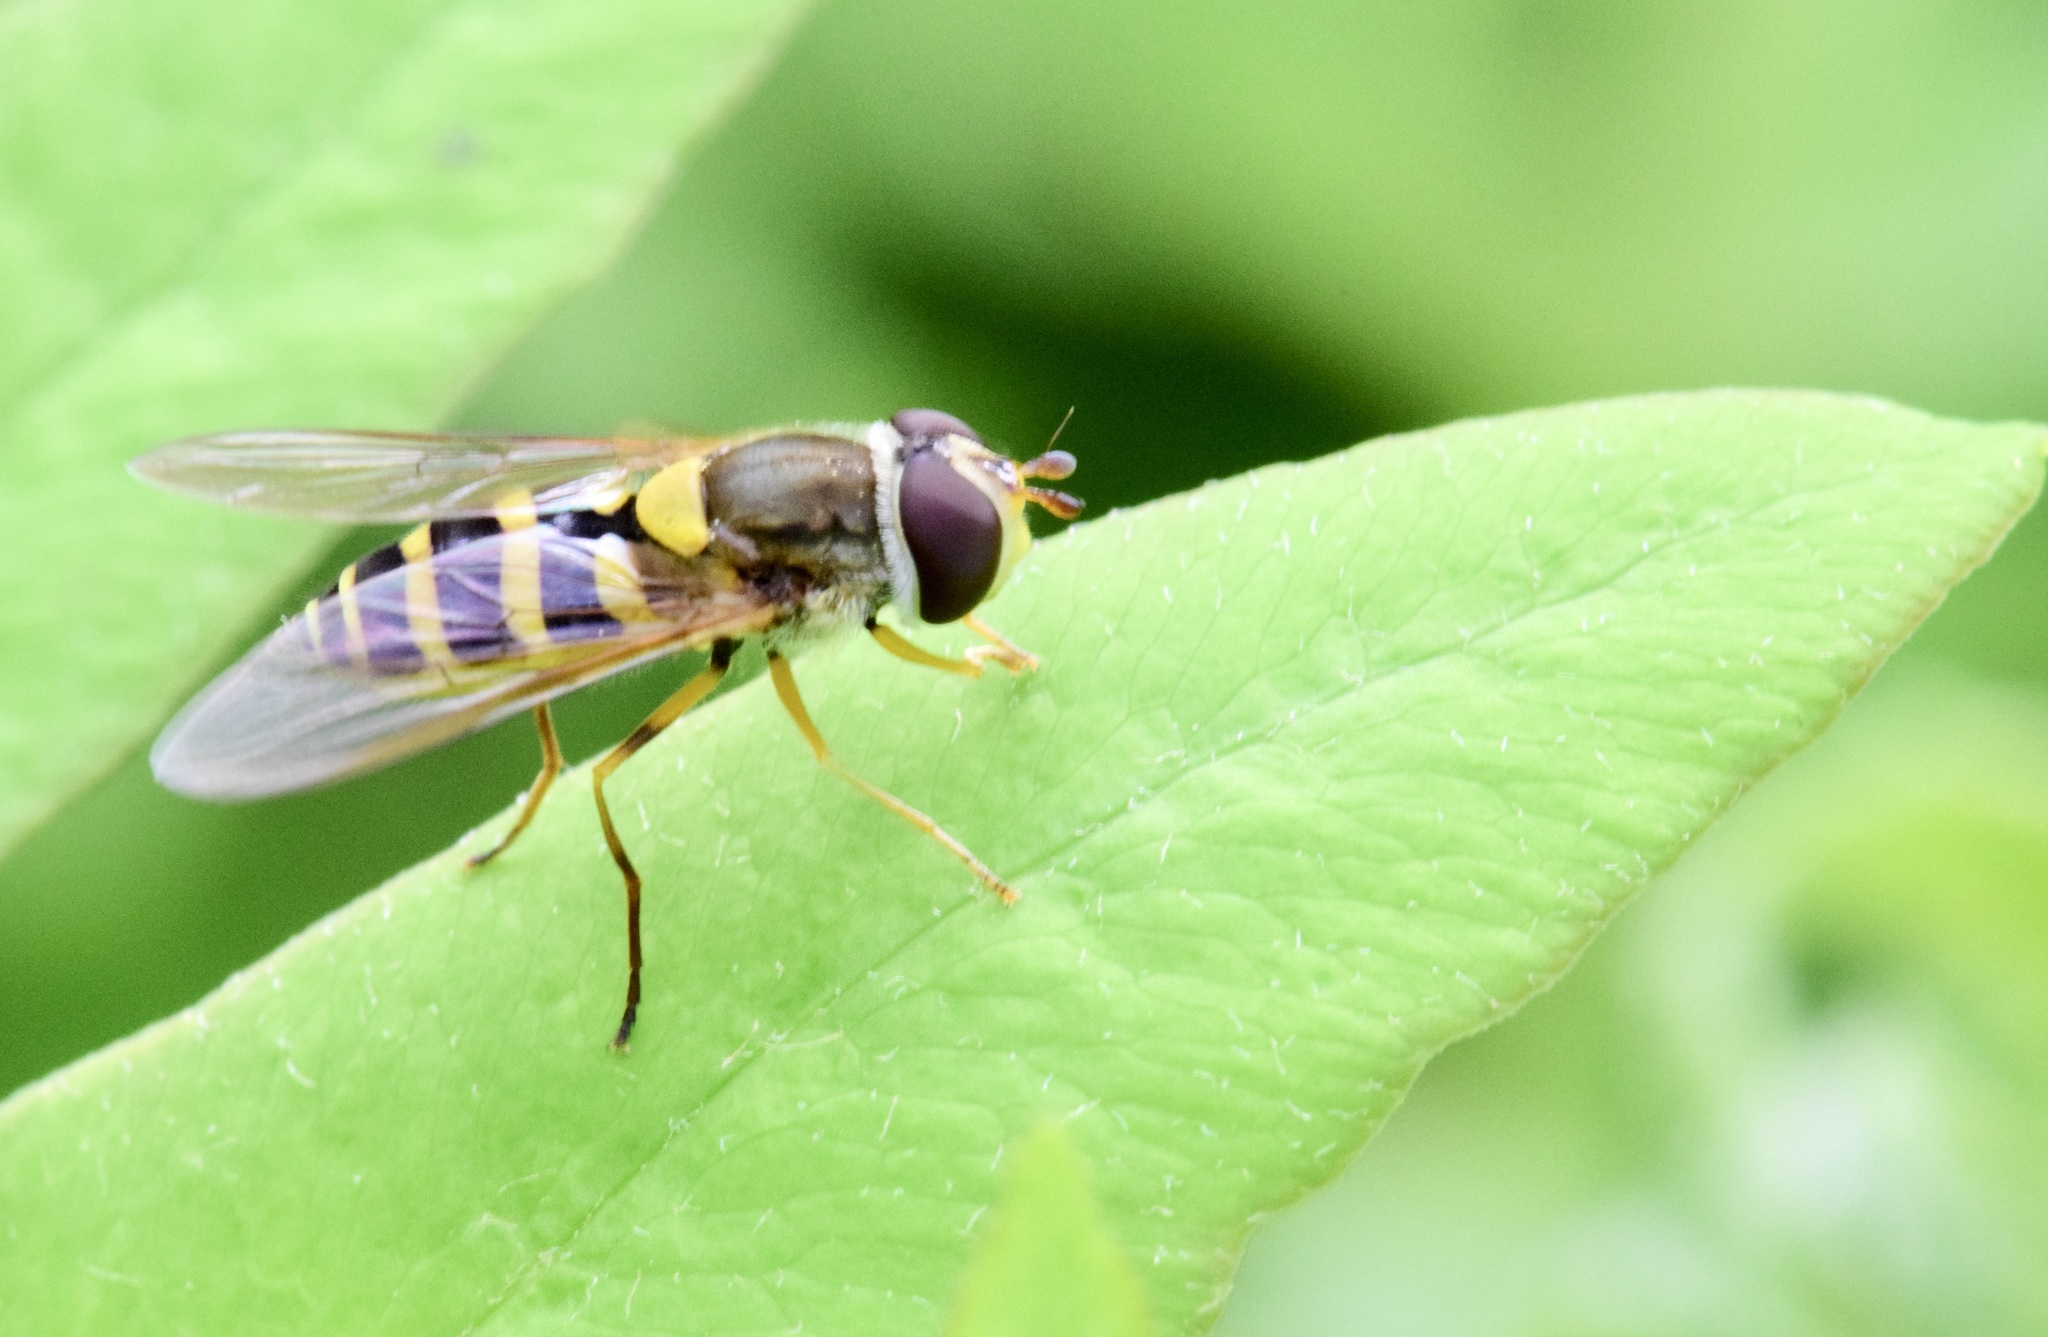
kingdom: Animalia
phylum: Arthropoda
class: Insecta
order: Diptera
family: Syrphidae
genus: Syrphus
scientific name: Syrphus rectus
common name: Yellow-legged flower fly
